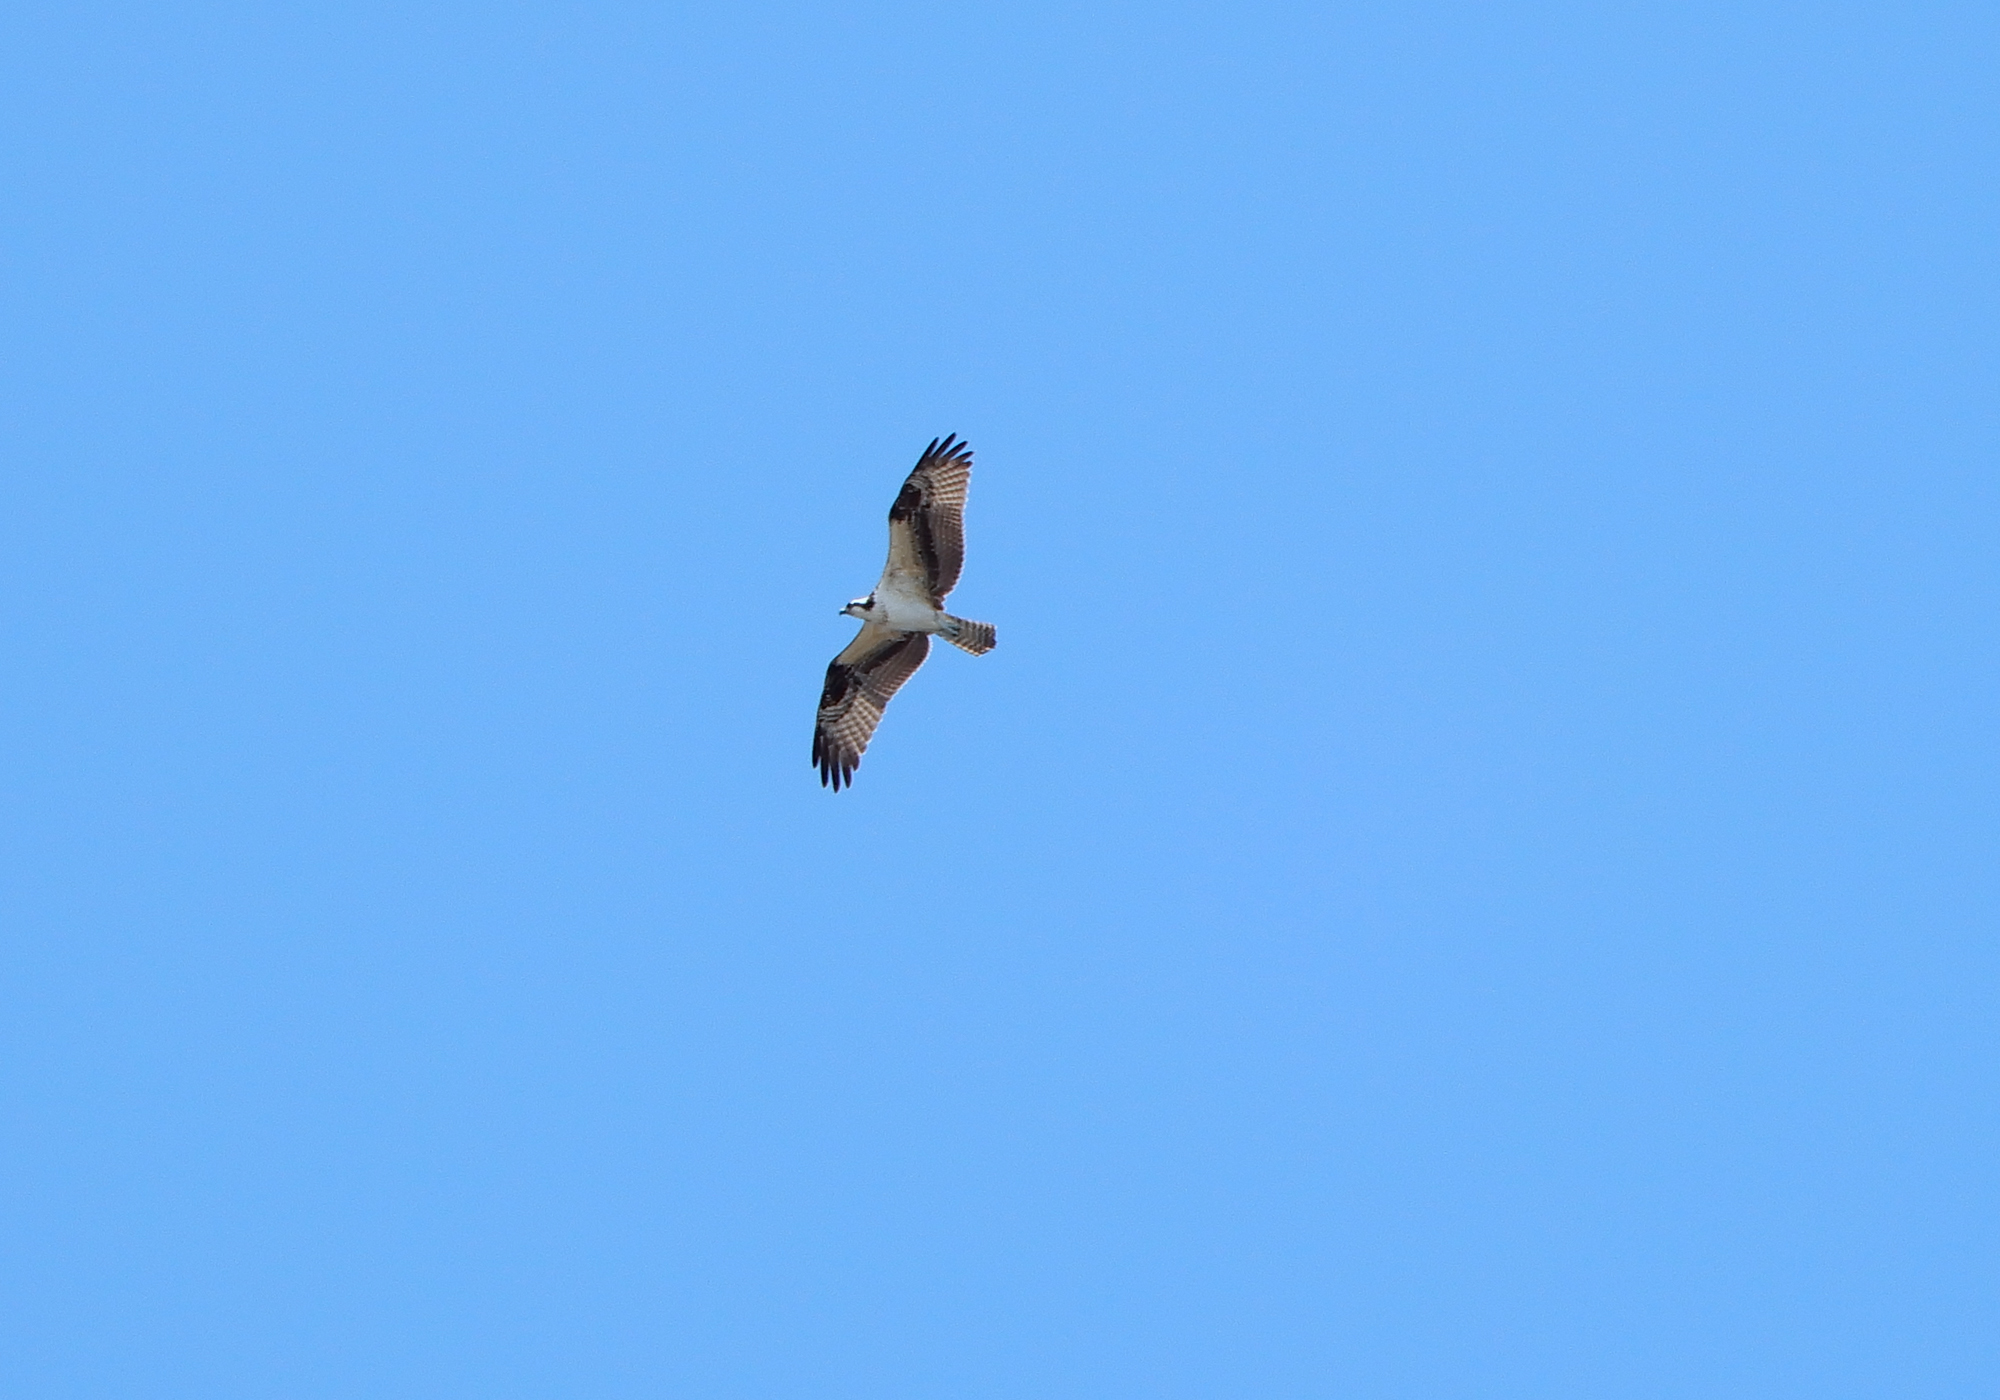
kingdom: Animalia
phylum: Chordata
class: Aves
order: Accipitriformes
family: Pandionidae
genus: Pandion
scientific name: Pandion haliaetus
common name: Osprey
